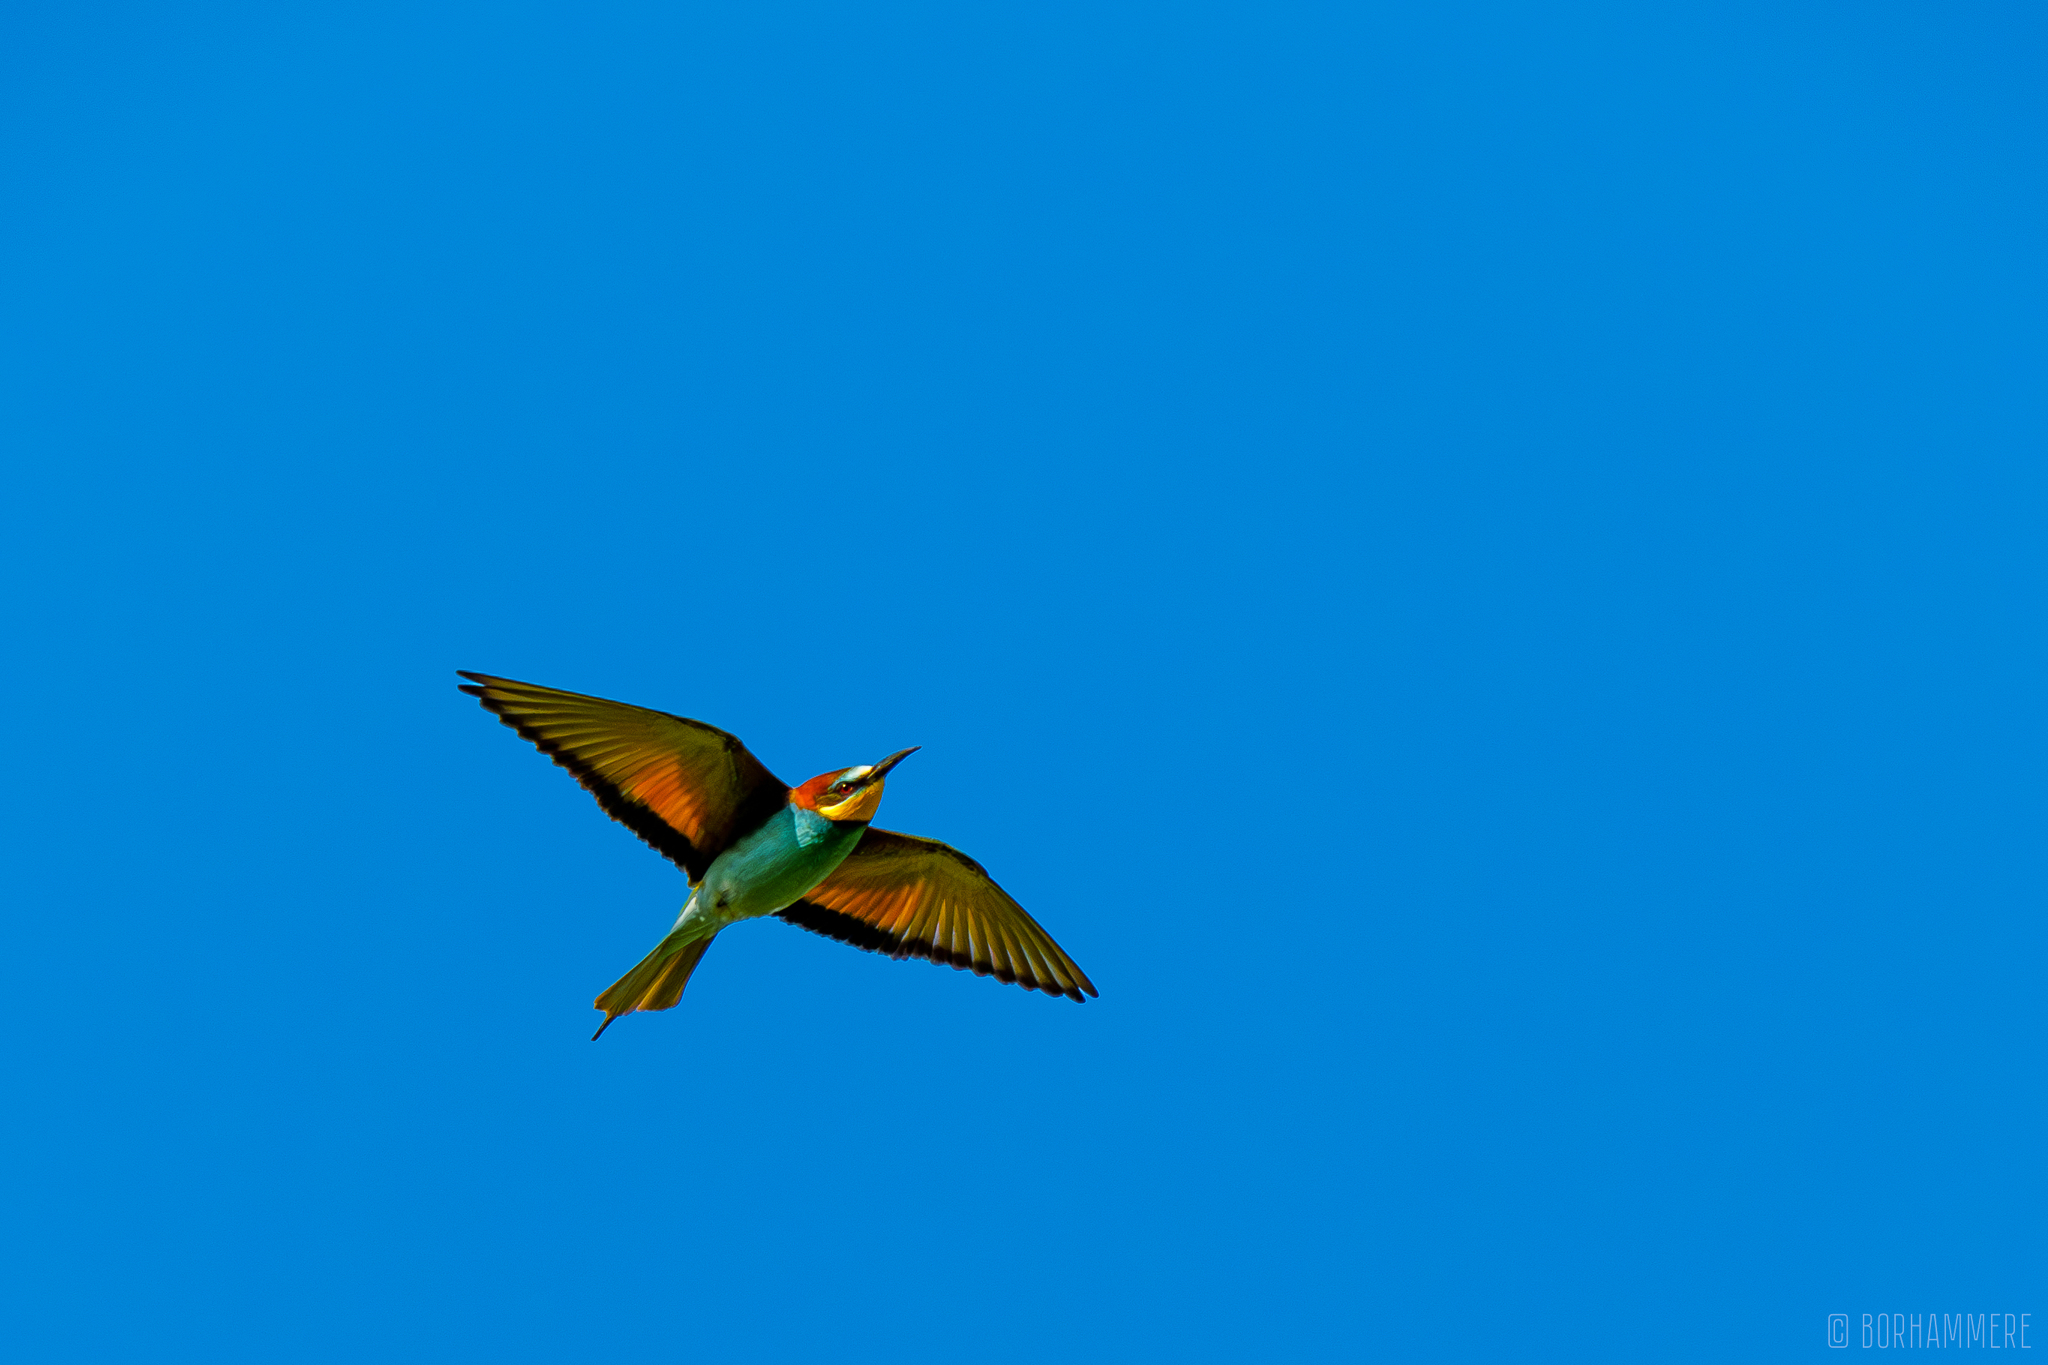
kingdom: Animalia
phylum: Chordata
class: Aves
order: Coraciiformes
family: Meropidae
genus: Merops
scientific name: Merops apiaster
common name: European bee-eater
